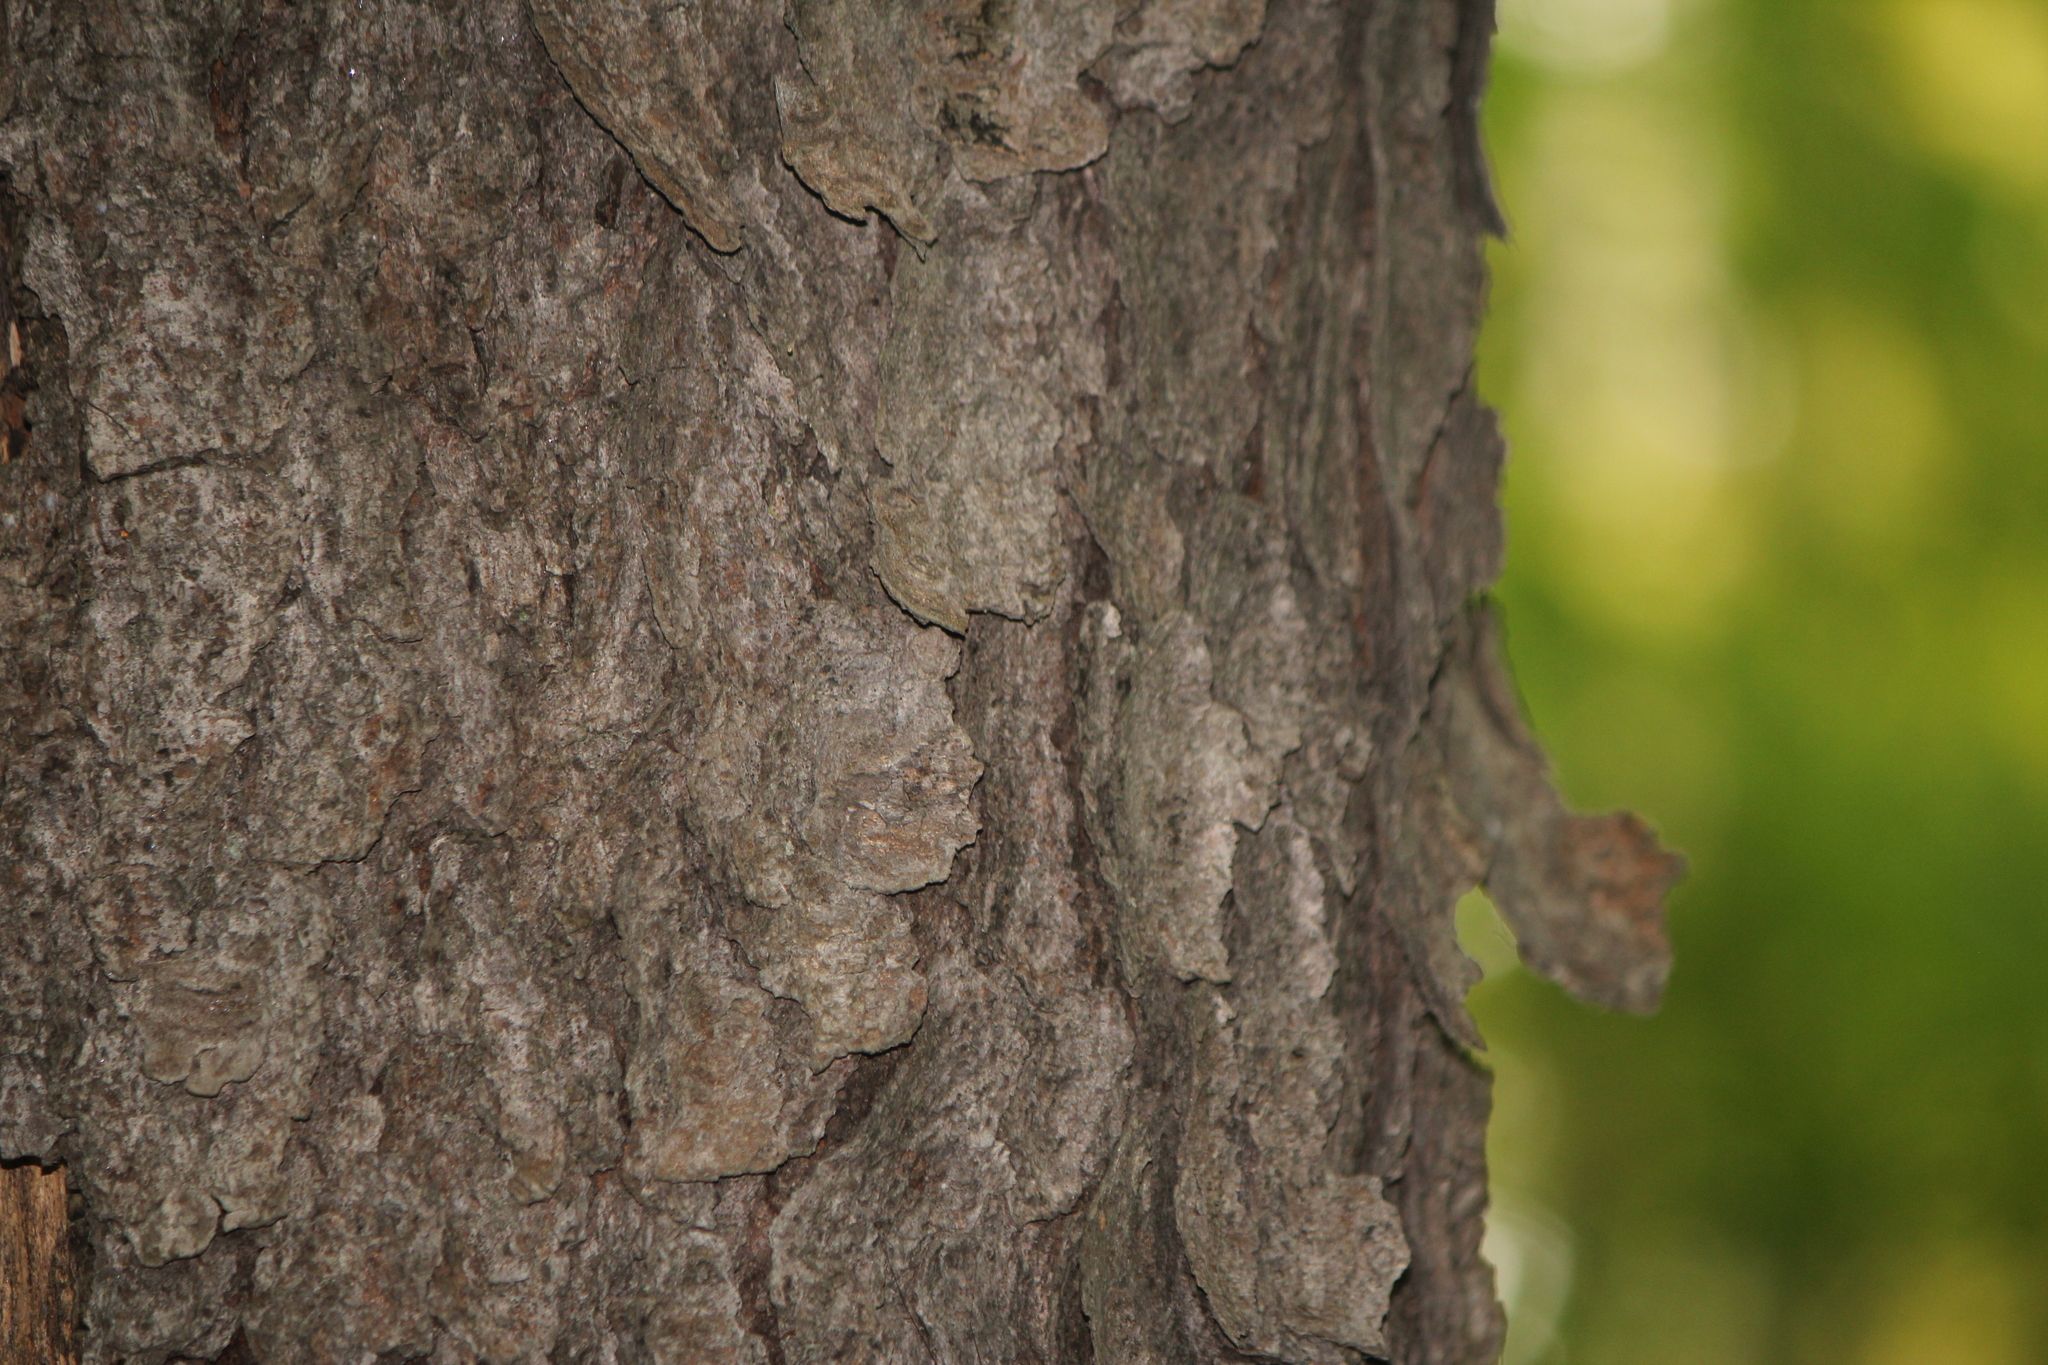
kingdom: Plantae
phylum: Tracheophyta
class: Magnoliopsida
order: Rosales
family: Rosaceae
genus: Prunus
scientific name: Prunus serotina
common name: Black cherry
